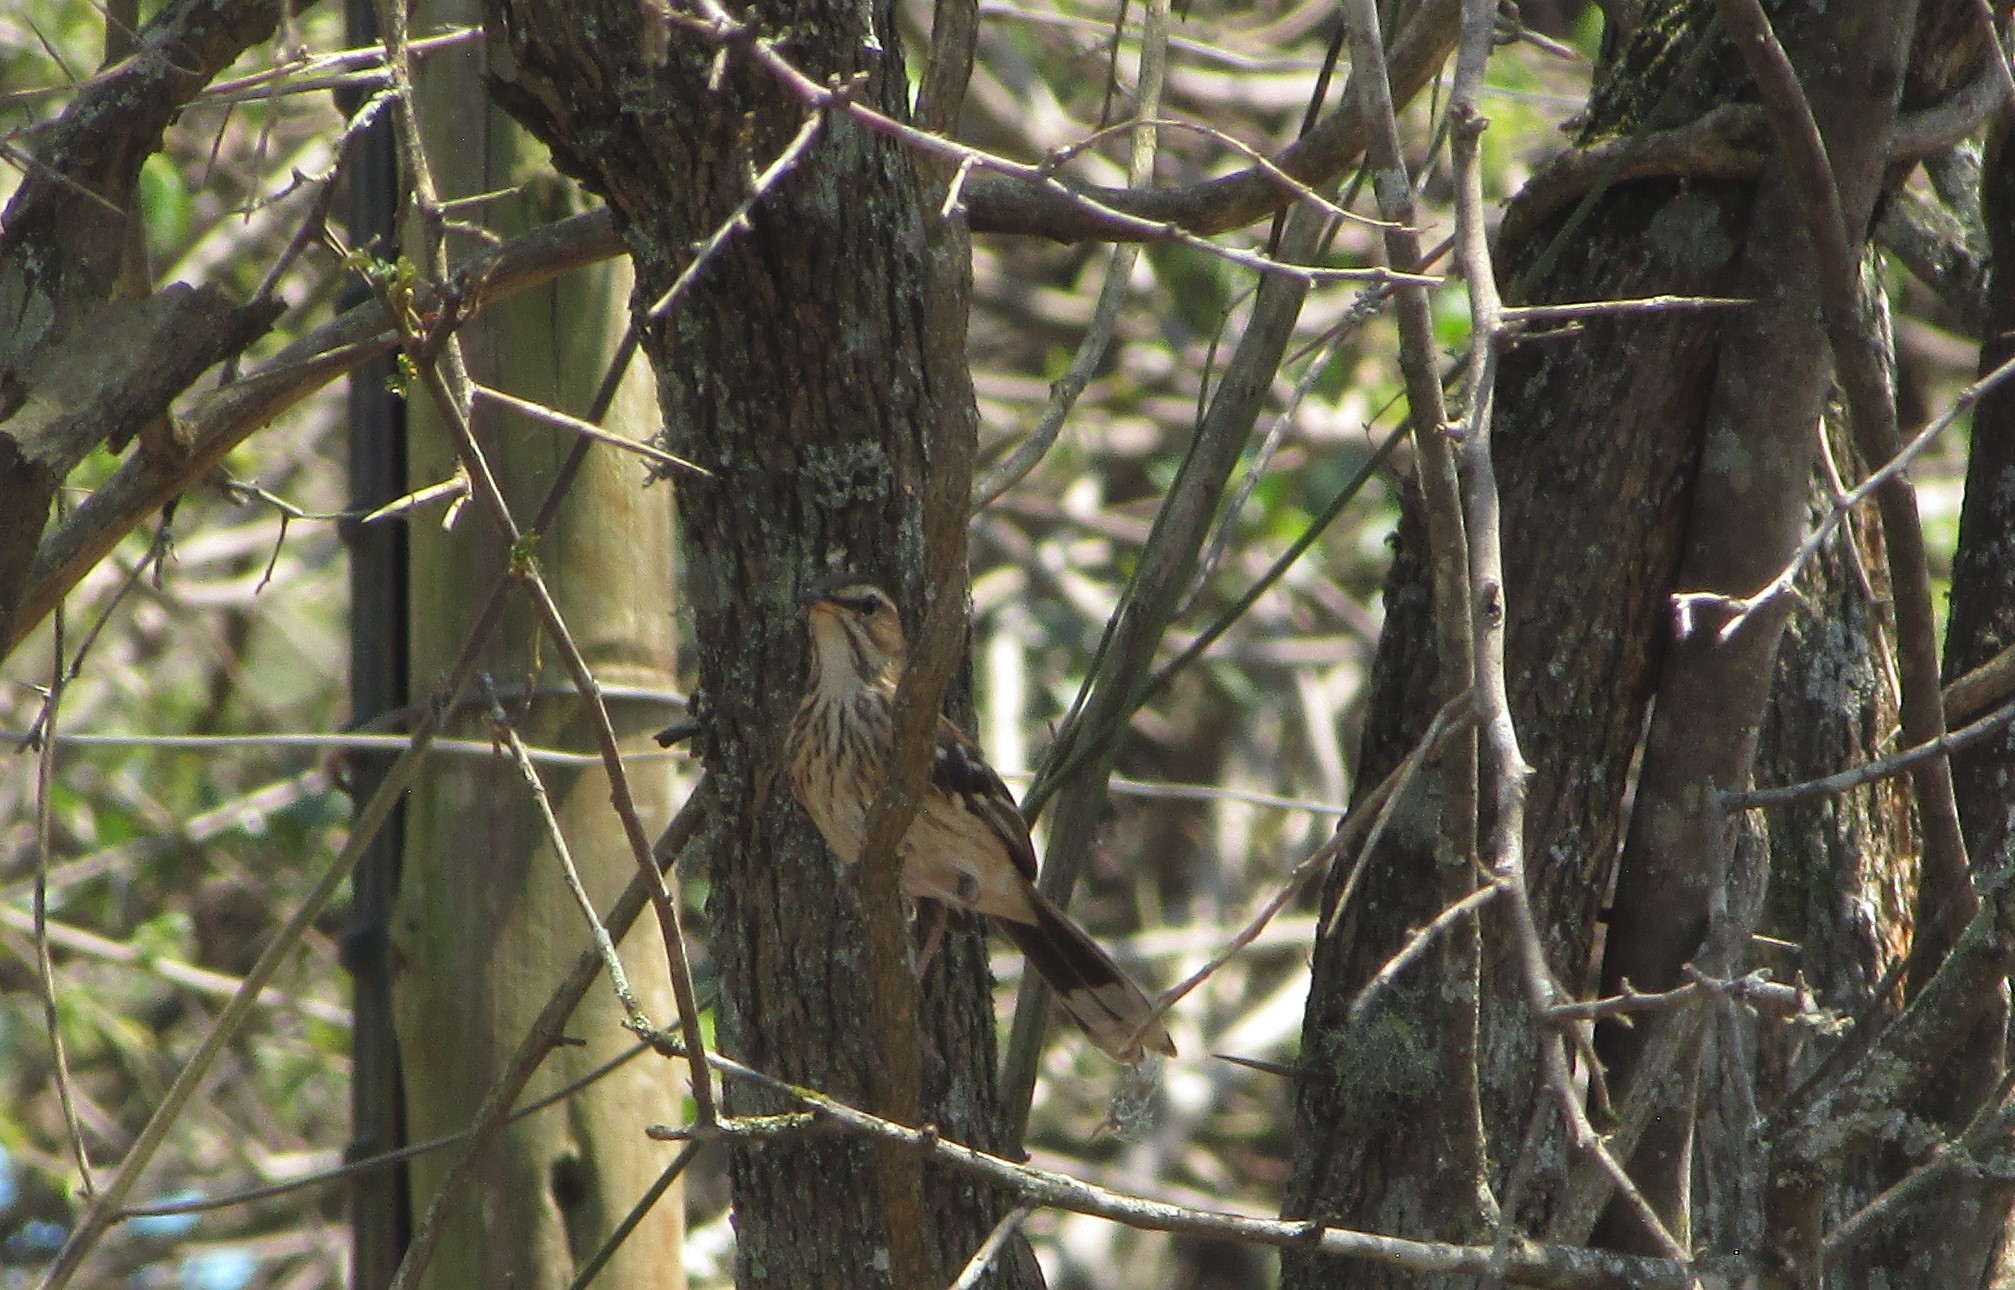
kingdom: Animalia
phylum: Chordata
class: Aves
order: Passeriformes
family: Muscicapidae
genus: Erythropygia
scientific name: Erythropygia leucophrys
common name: White-browed scrub robin
